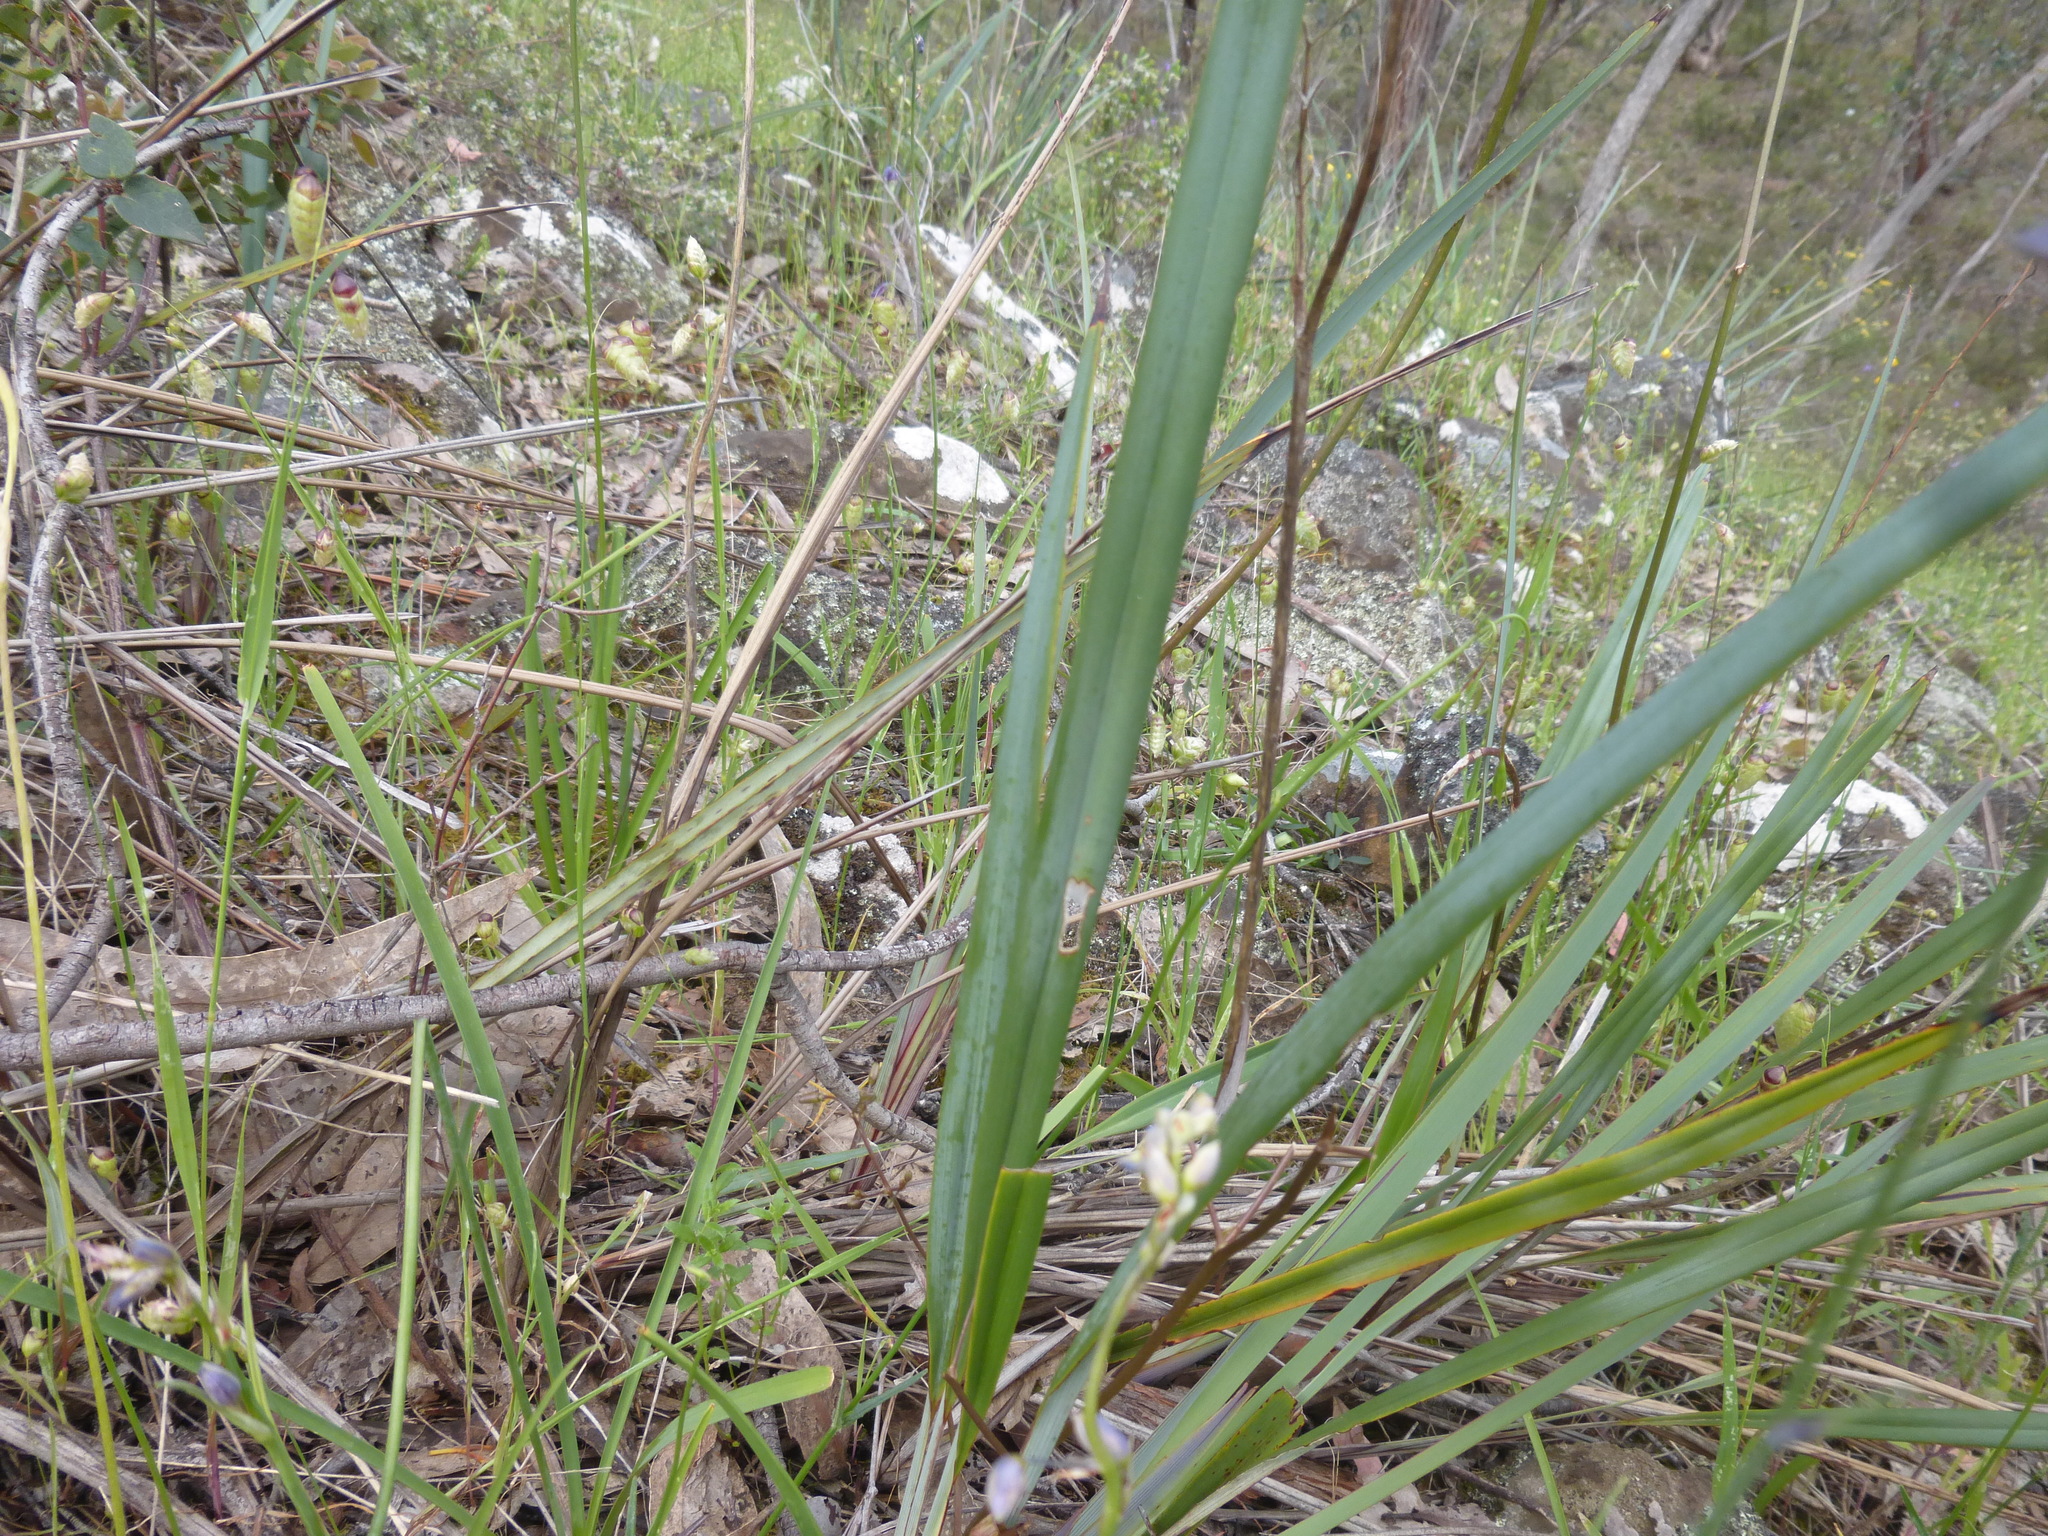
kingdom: Plantae
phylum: Tracheophyta
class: Liliopsida
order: Asparagales
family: Asphodelaceae
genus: Dianella
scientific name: Dianella revoluta
